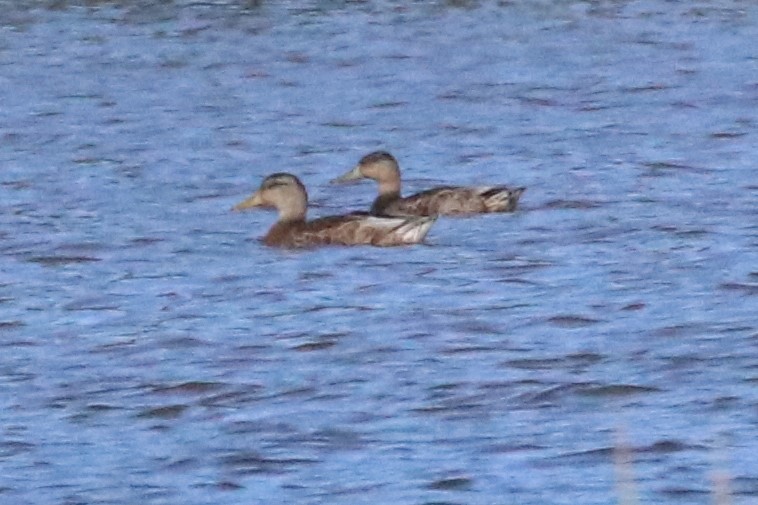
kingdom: Animalia
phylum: Chordata
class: Aves
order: Anseriformes
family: Anatidae
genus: Anas
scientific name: Anas platyrhynchos
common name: Mallard
